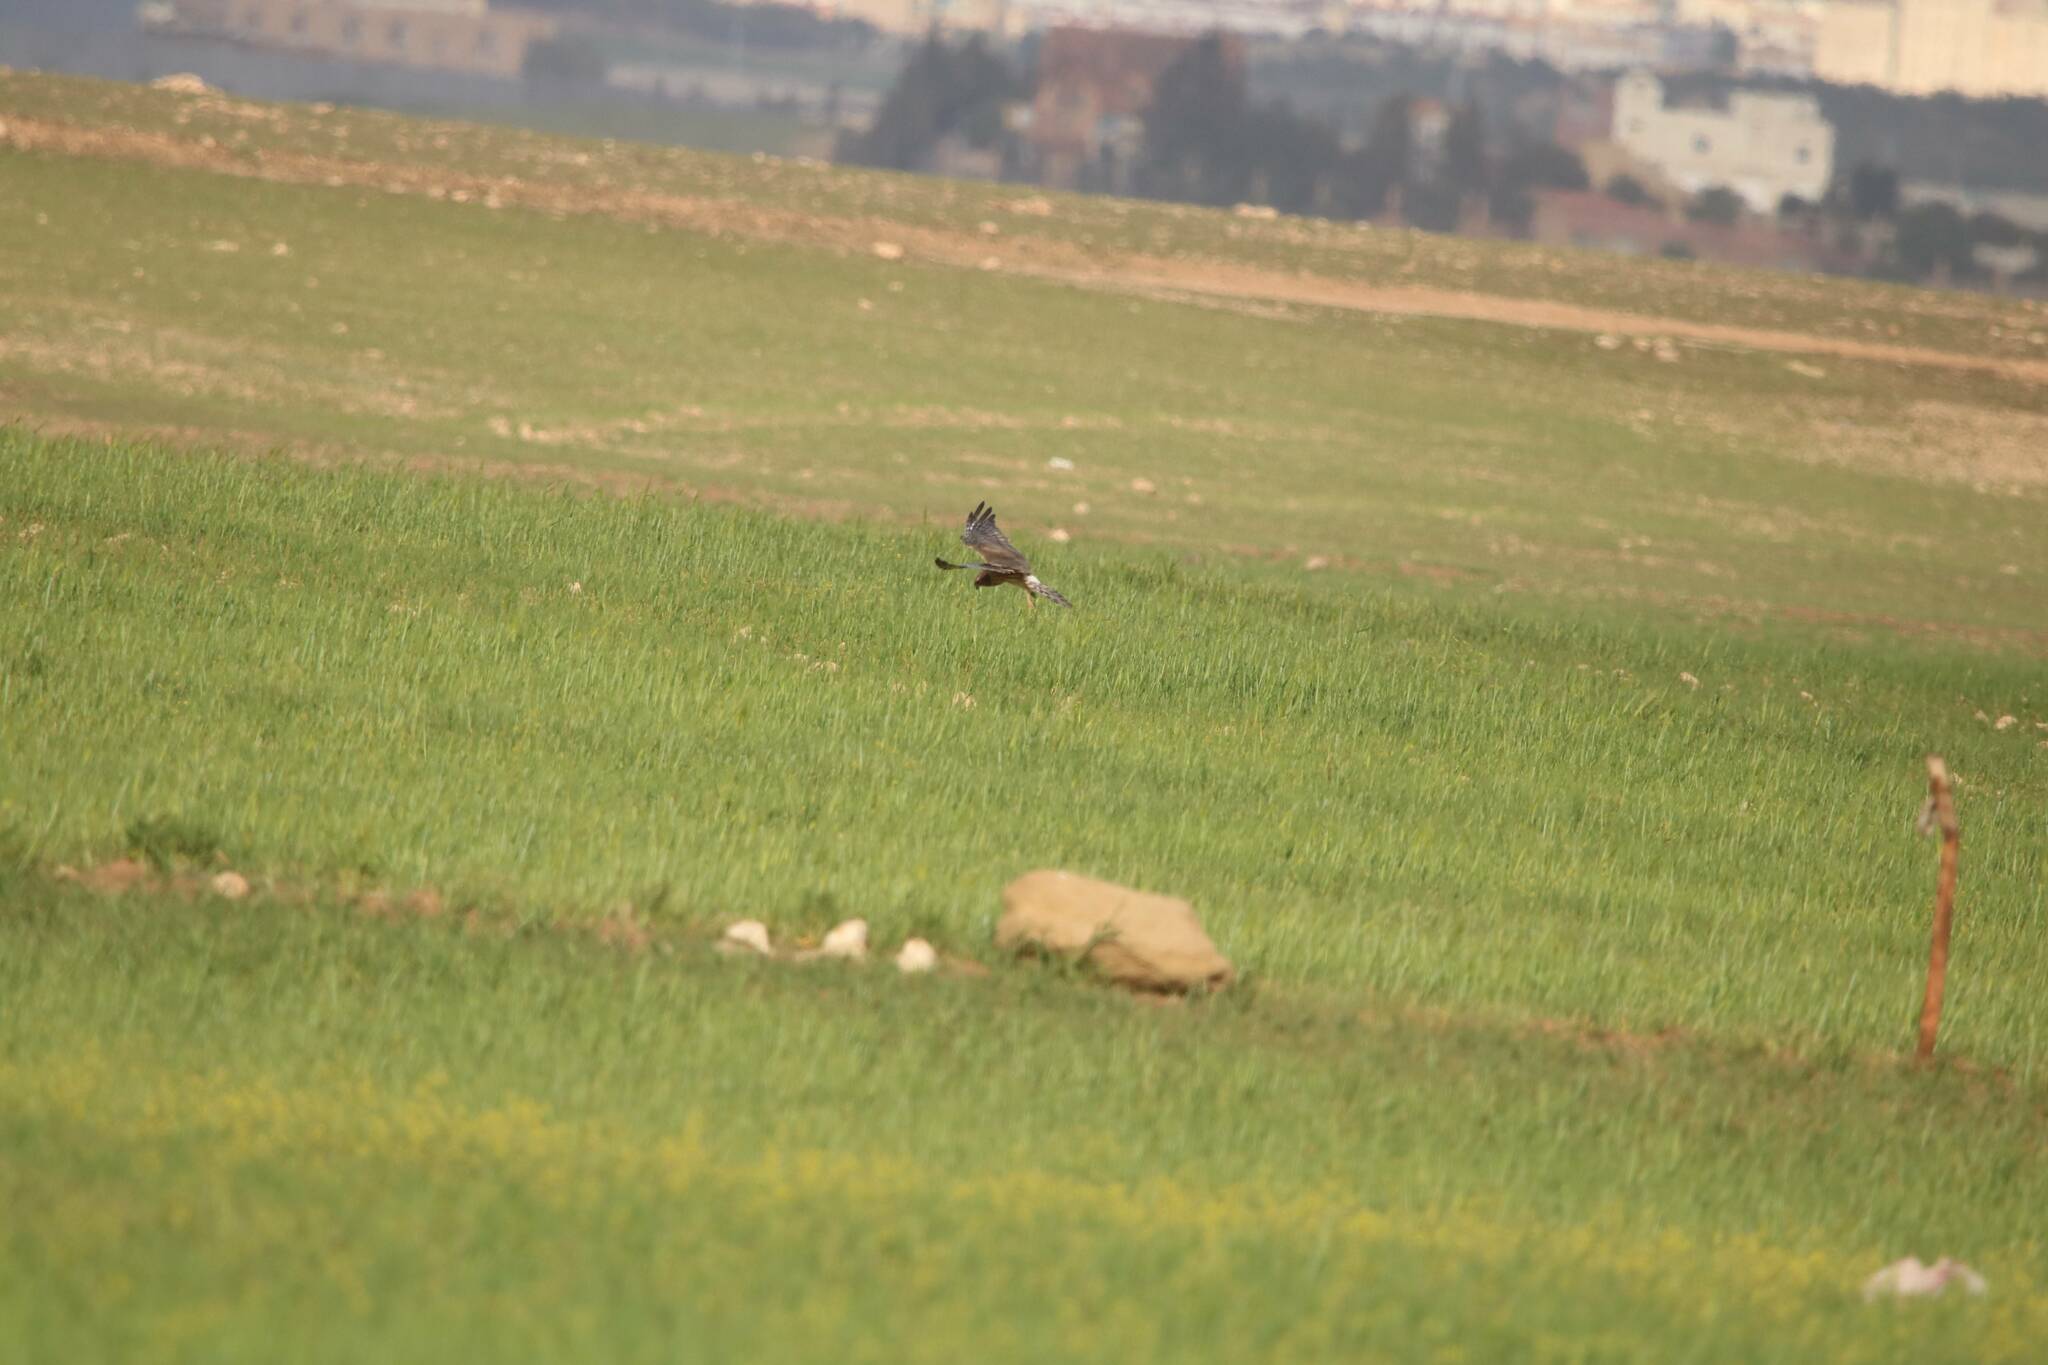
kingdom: Animalia
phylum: Chordata
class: Aves
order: Accipitriformes
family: Accipitridae
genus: Circus
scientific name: Circus pygargus
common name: Montagu's harrier
